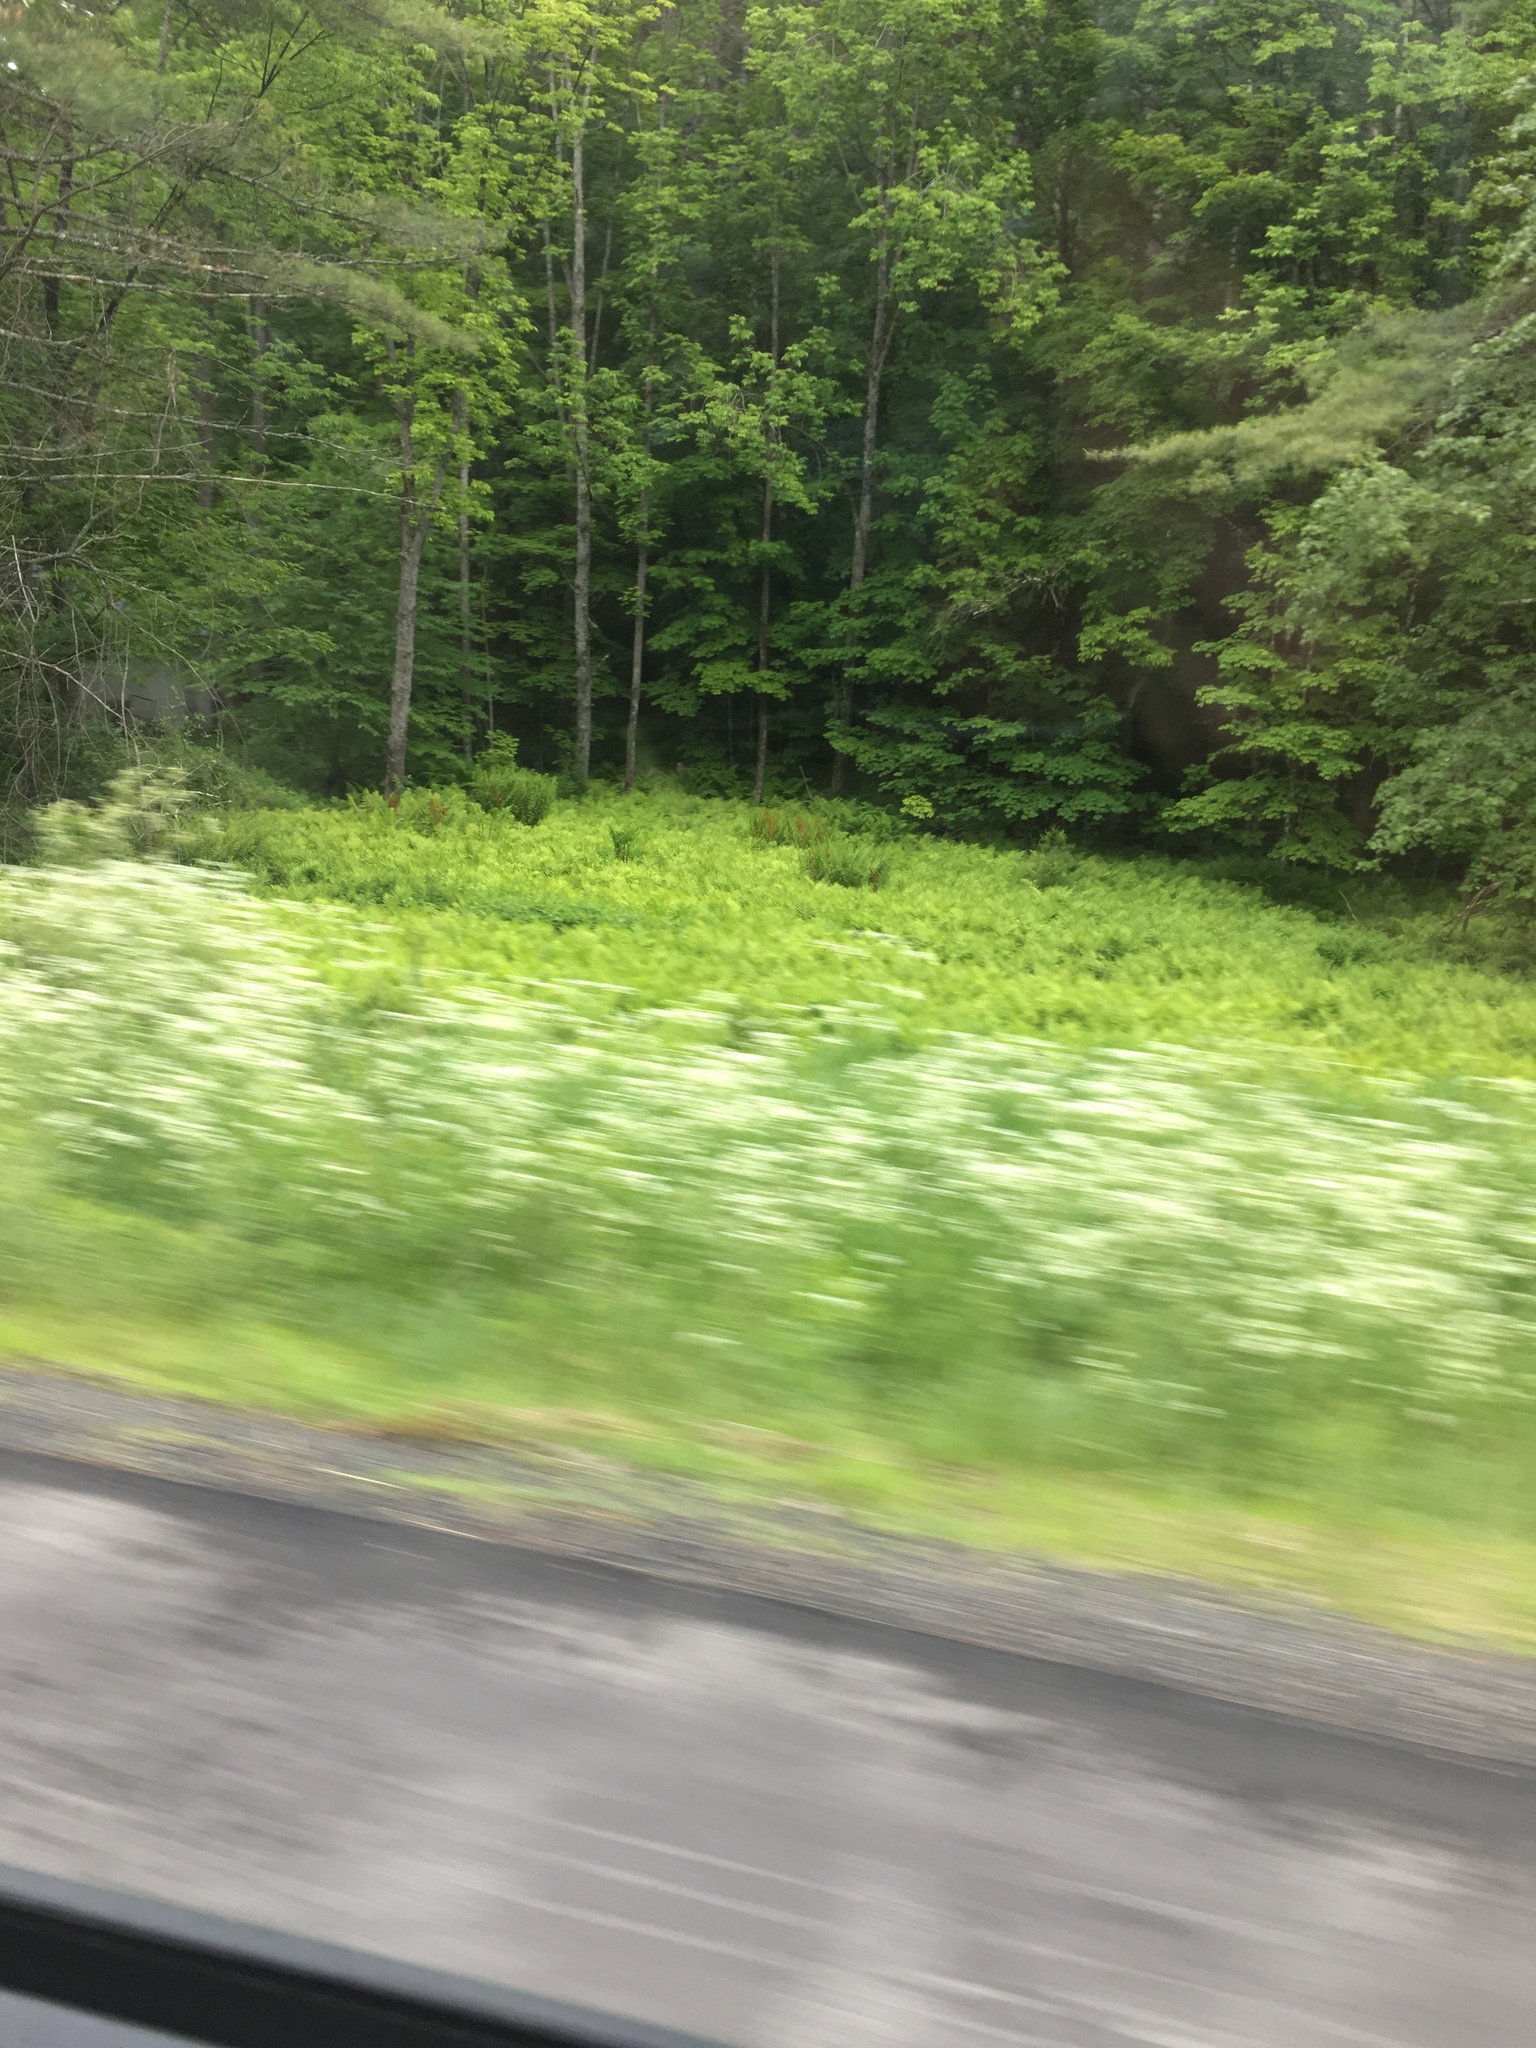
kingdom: Plantae
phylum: Tracheophyta
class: Polypodiopsida
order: Polypodiales
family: Onocleaceae
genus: Onoclea
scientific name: Onoclea sensibilis
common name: Sensitive fern
